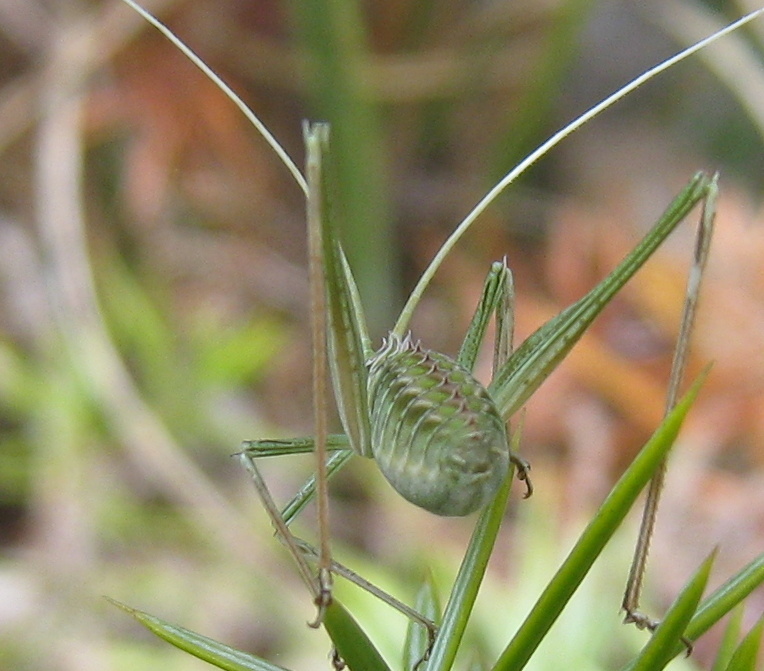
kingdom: Animalia
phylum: Arthropoda
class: Insecta
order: Orthoptera
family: Tettigoniidae
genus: Tylopsis
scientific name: Tylopsis lilifolia
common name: Lily bush-cricket
